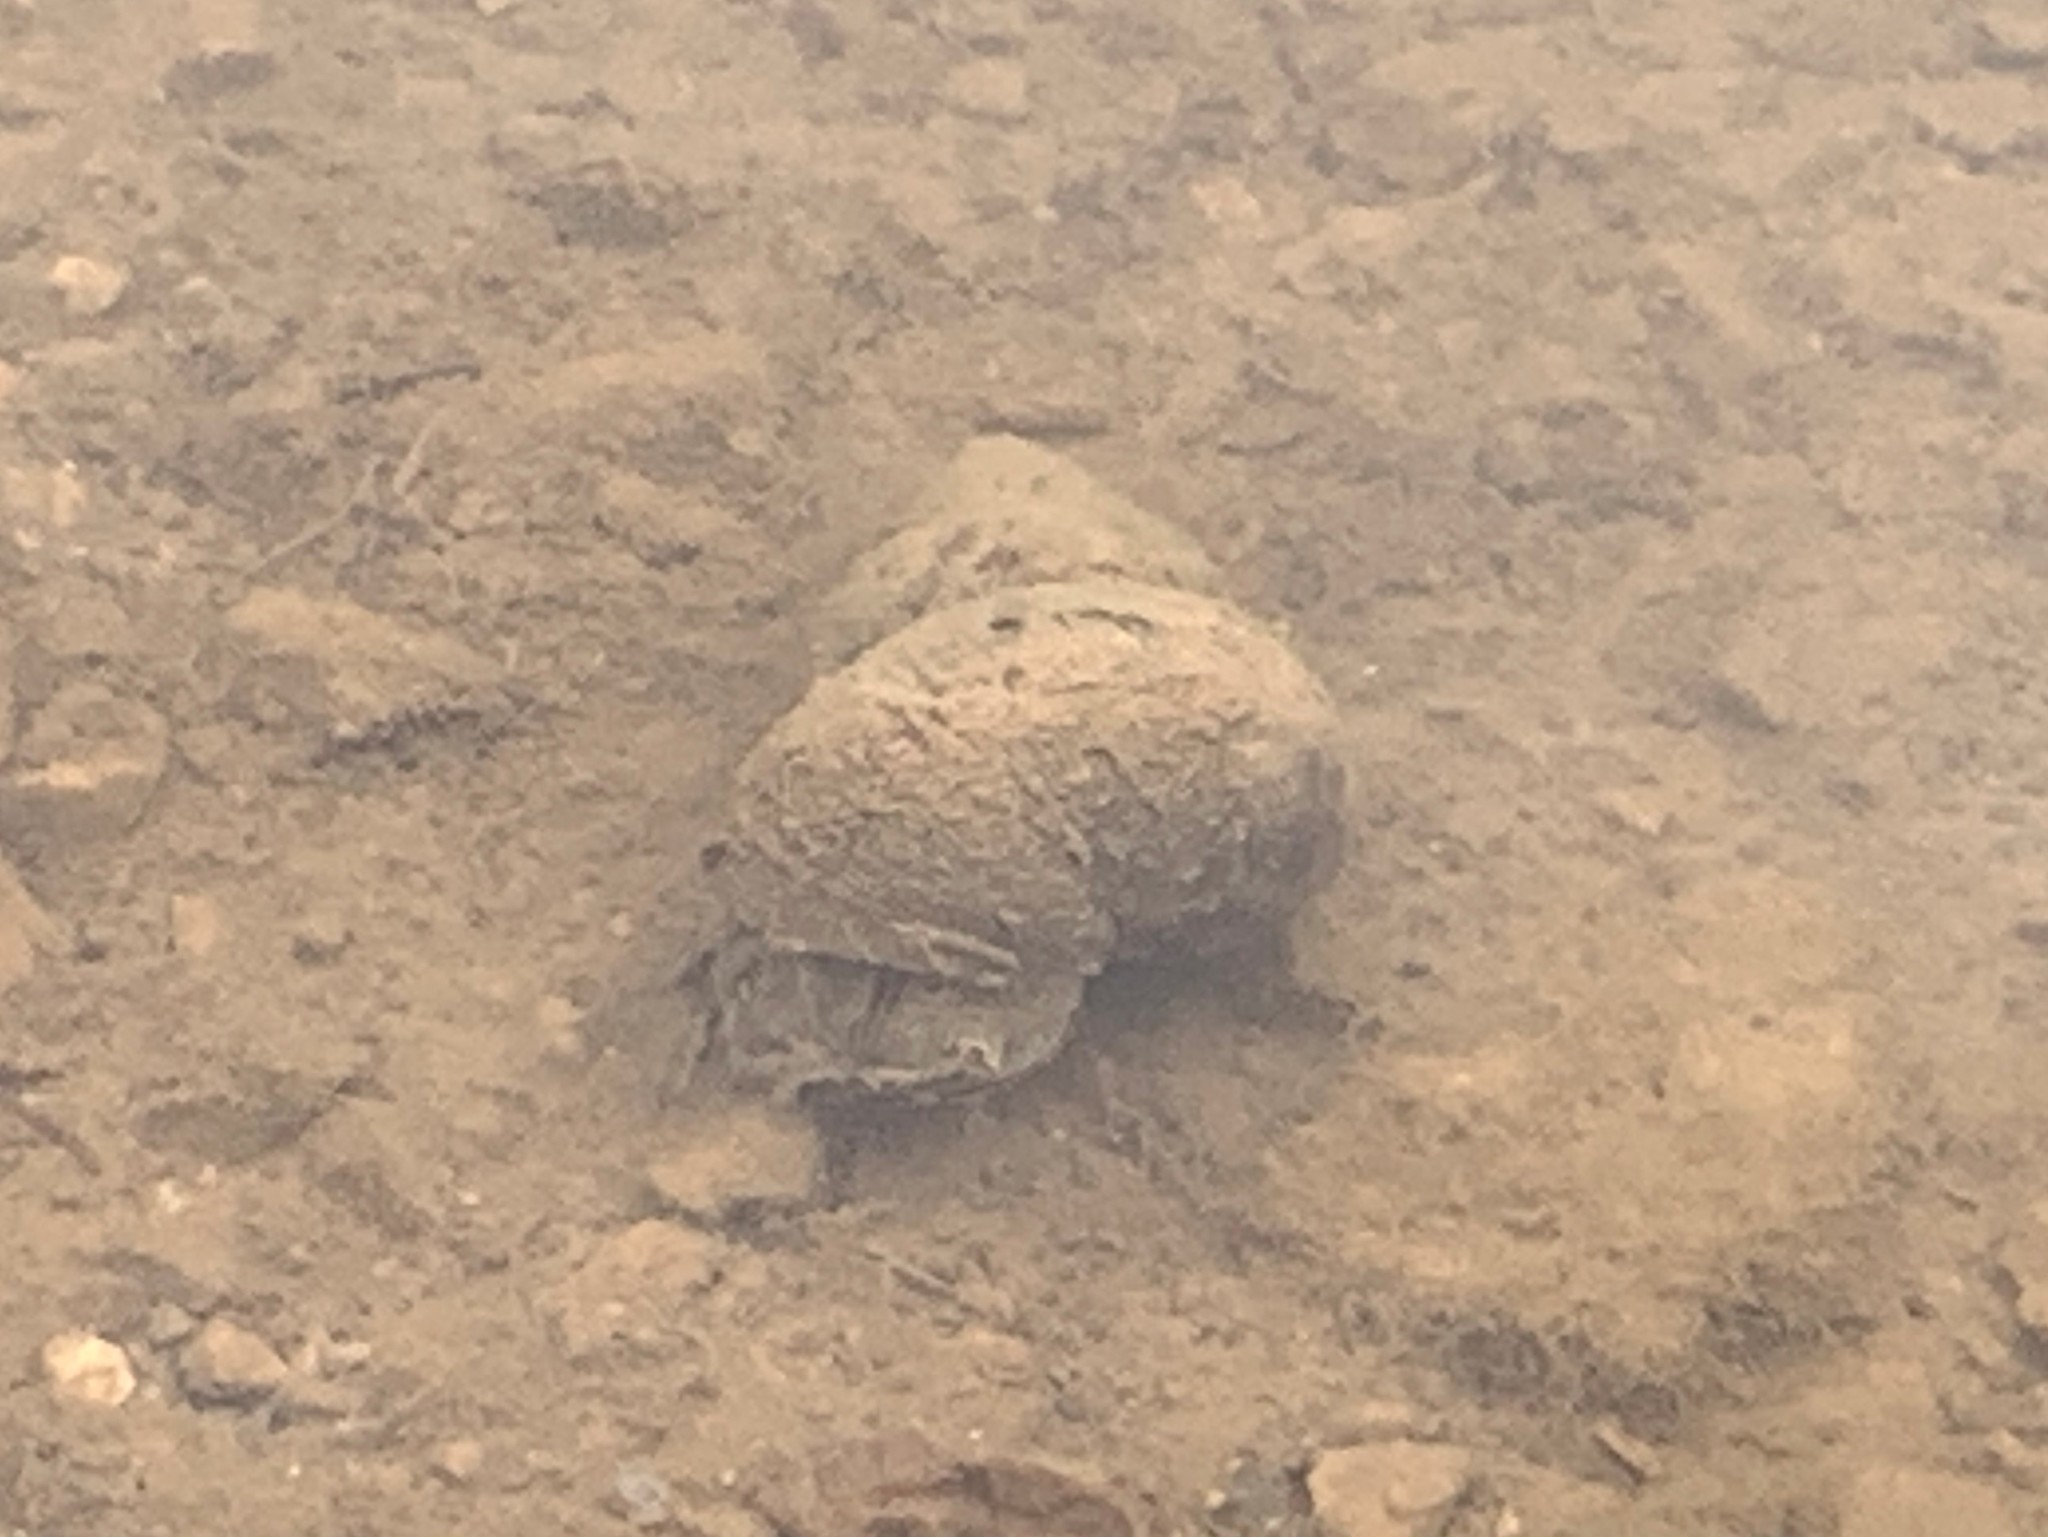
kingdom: Animalia
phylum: Mollusca
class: Gastropoda
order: Architaenioglossa
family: Viviparidae
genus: Cipangopaludina
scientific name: Cipangopaludina chinensis
